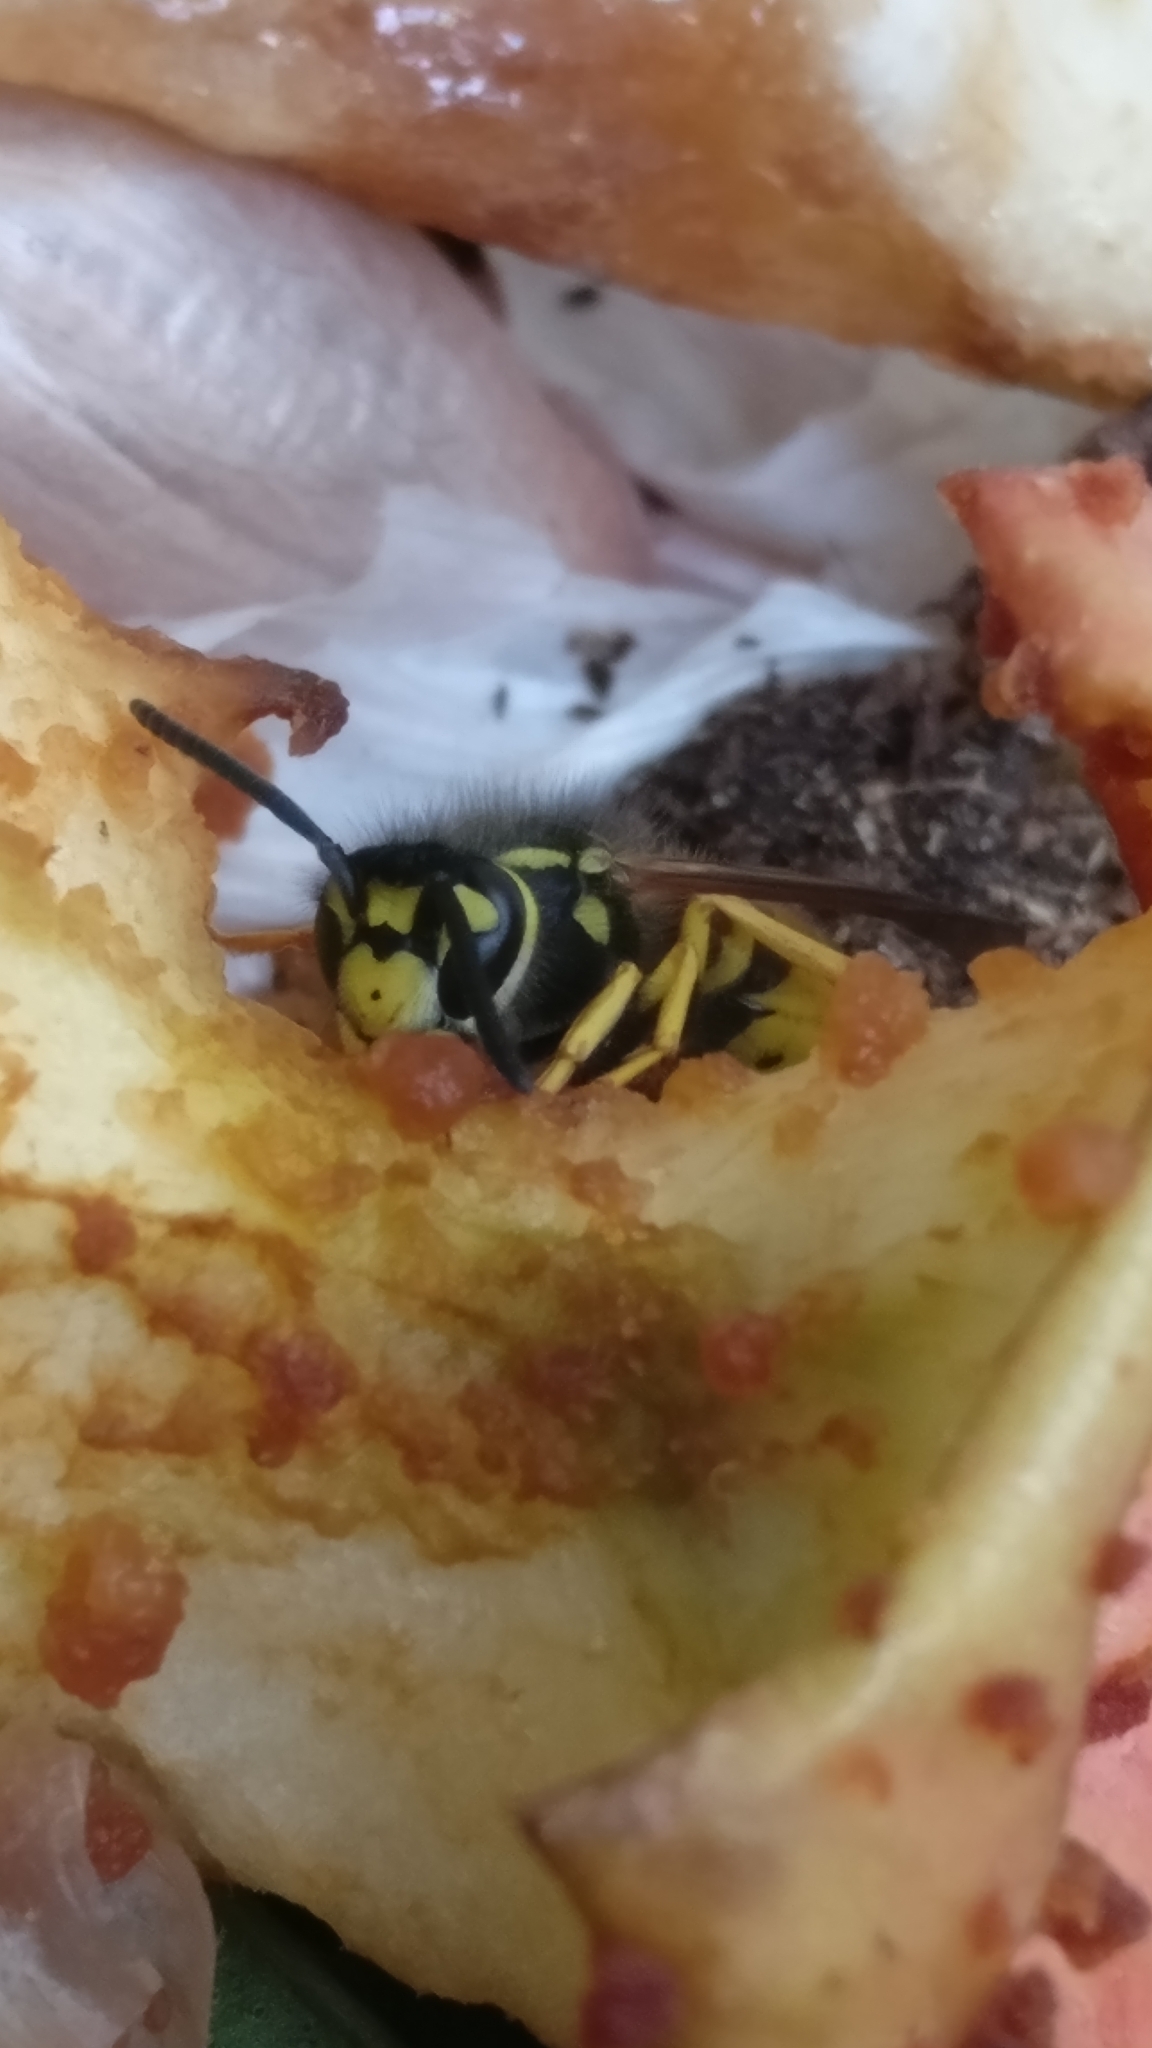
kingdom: Animalia
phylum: Arthropoda
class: Insecta
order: Hymenoptera
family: Vespidae
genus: Vespula
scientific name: Vespula germanica
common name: German wasp
